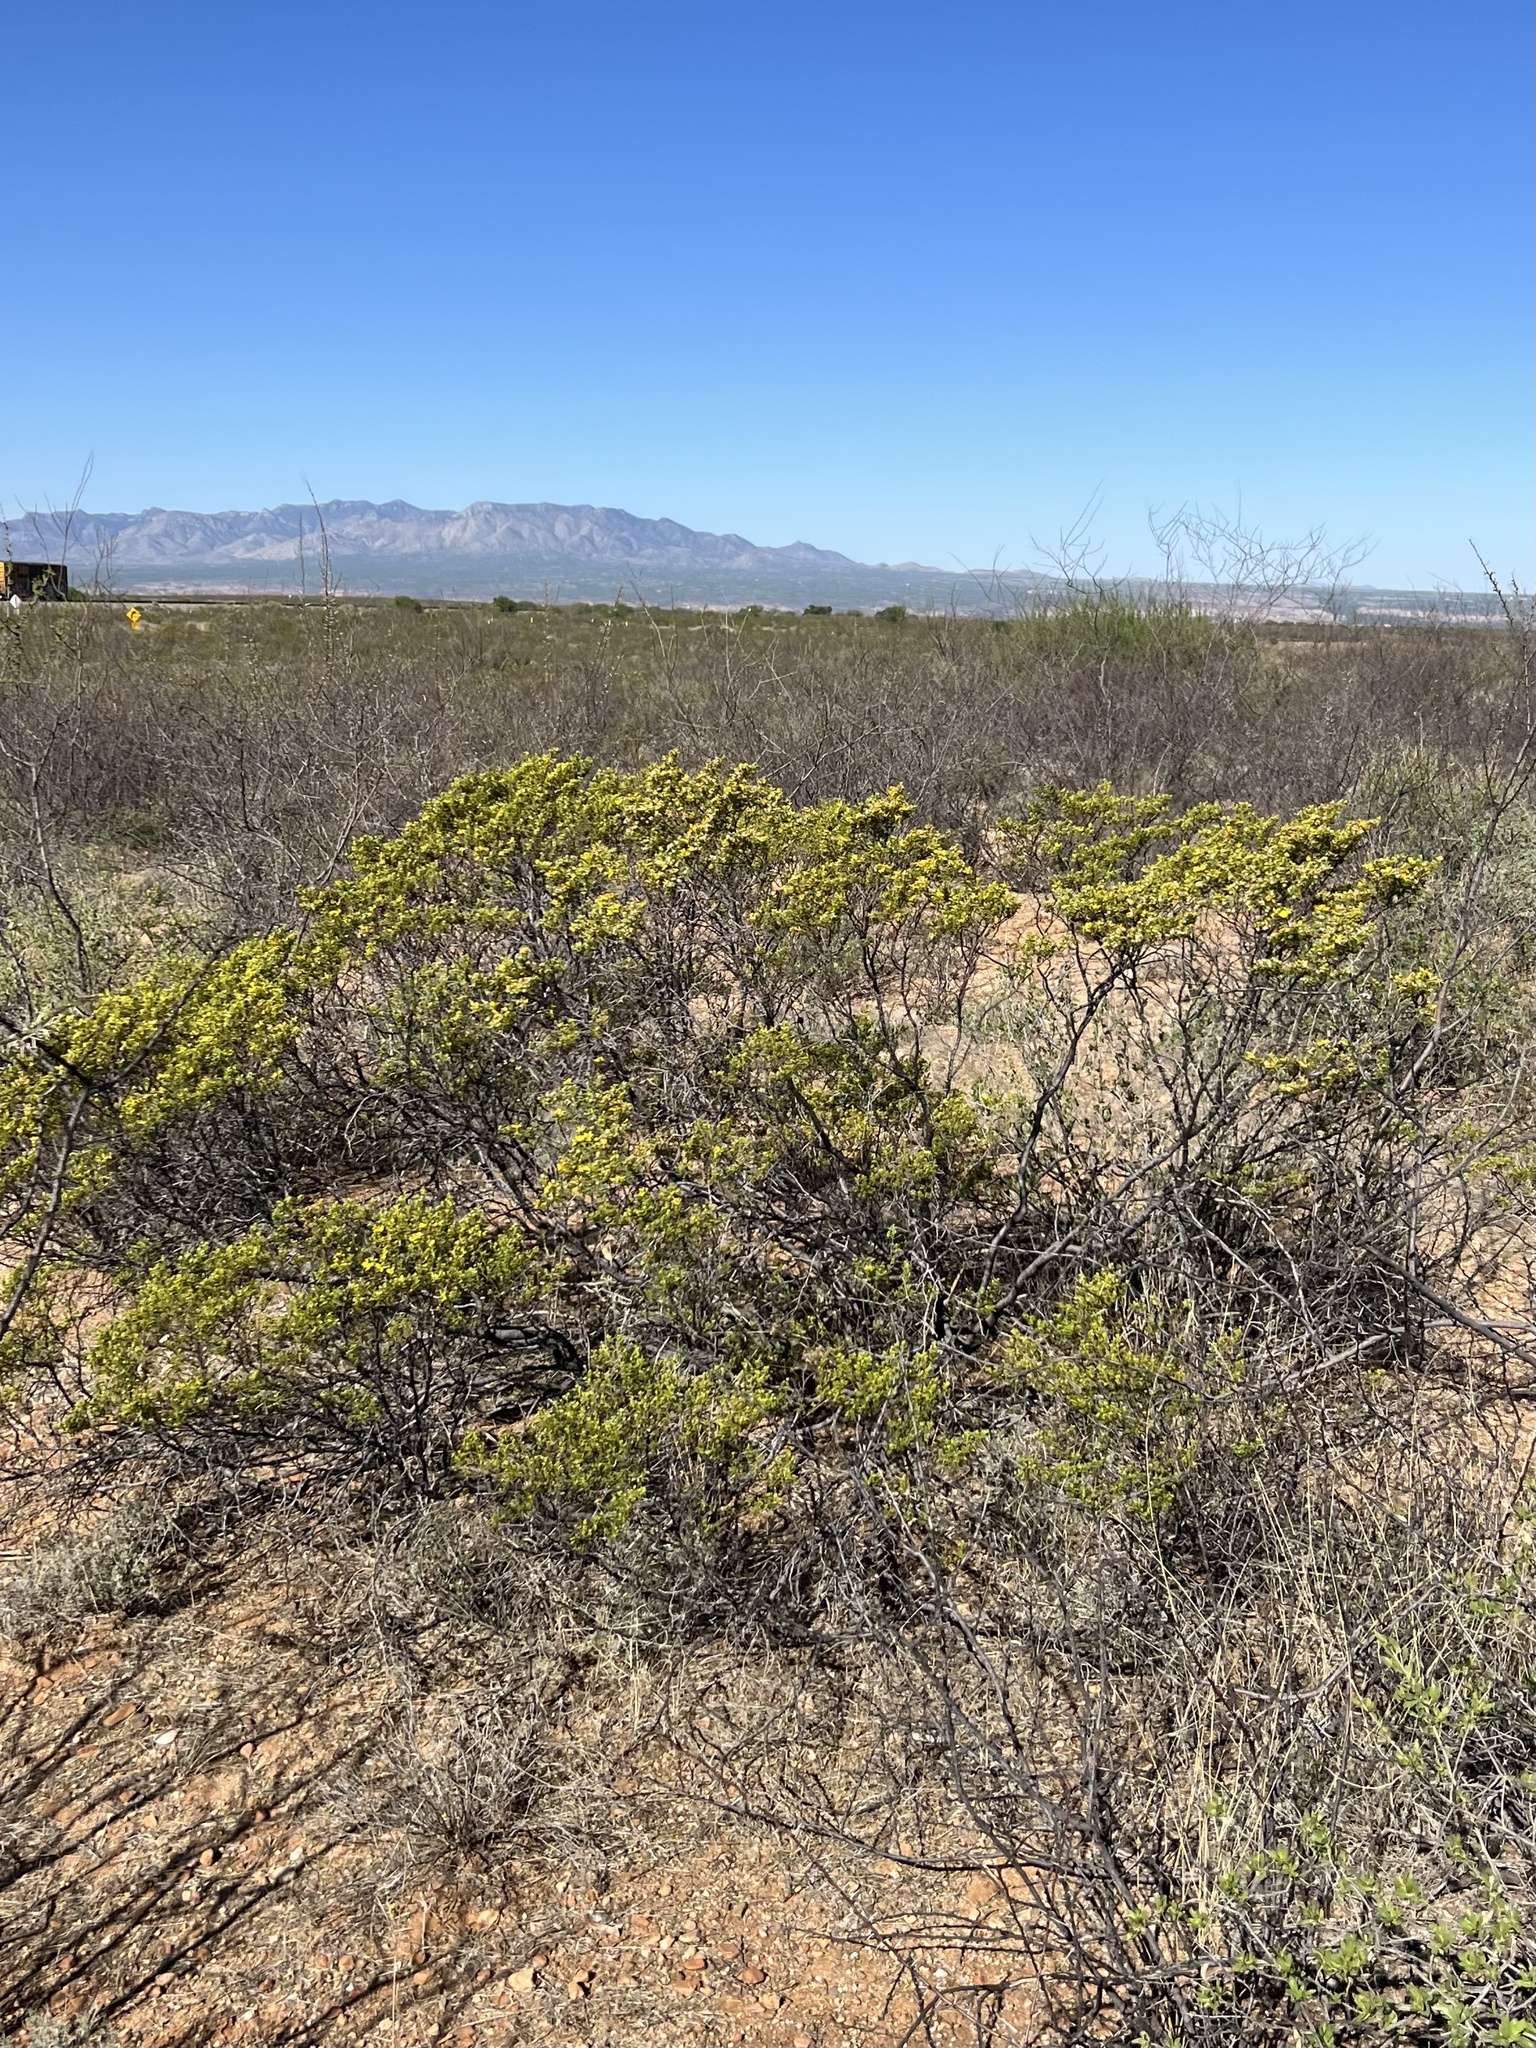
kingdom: Plantae
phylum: Tracheophyta
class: Magnoliopsida
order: Zygophyllales
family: Zygophyllaceae
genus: Larrea
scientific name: Larrea tridentata
